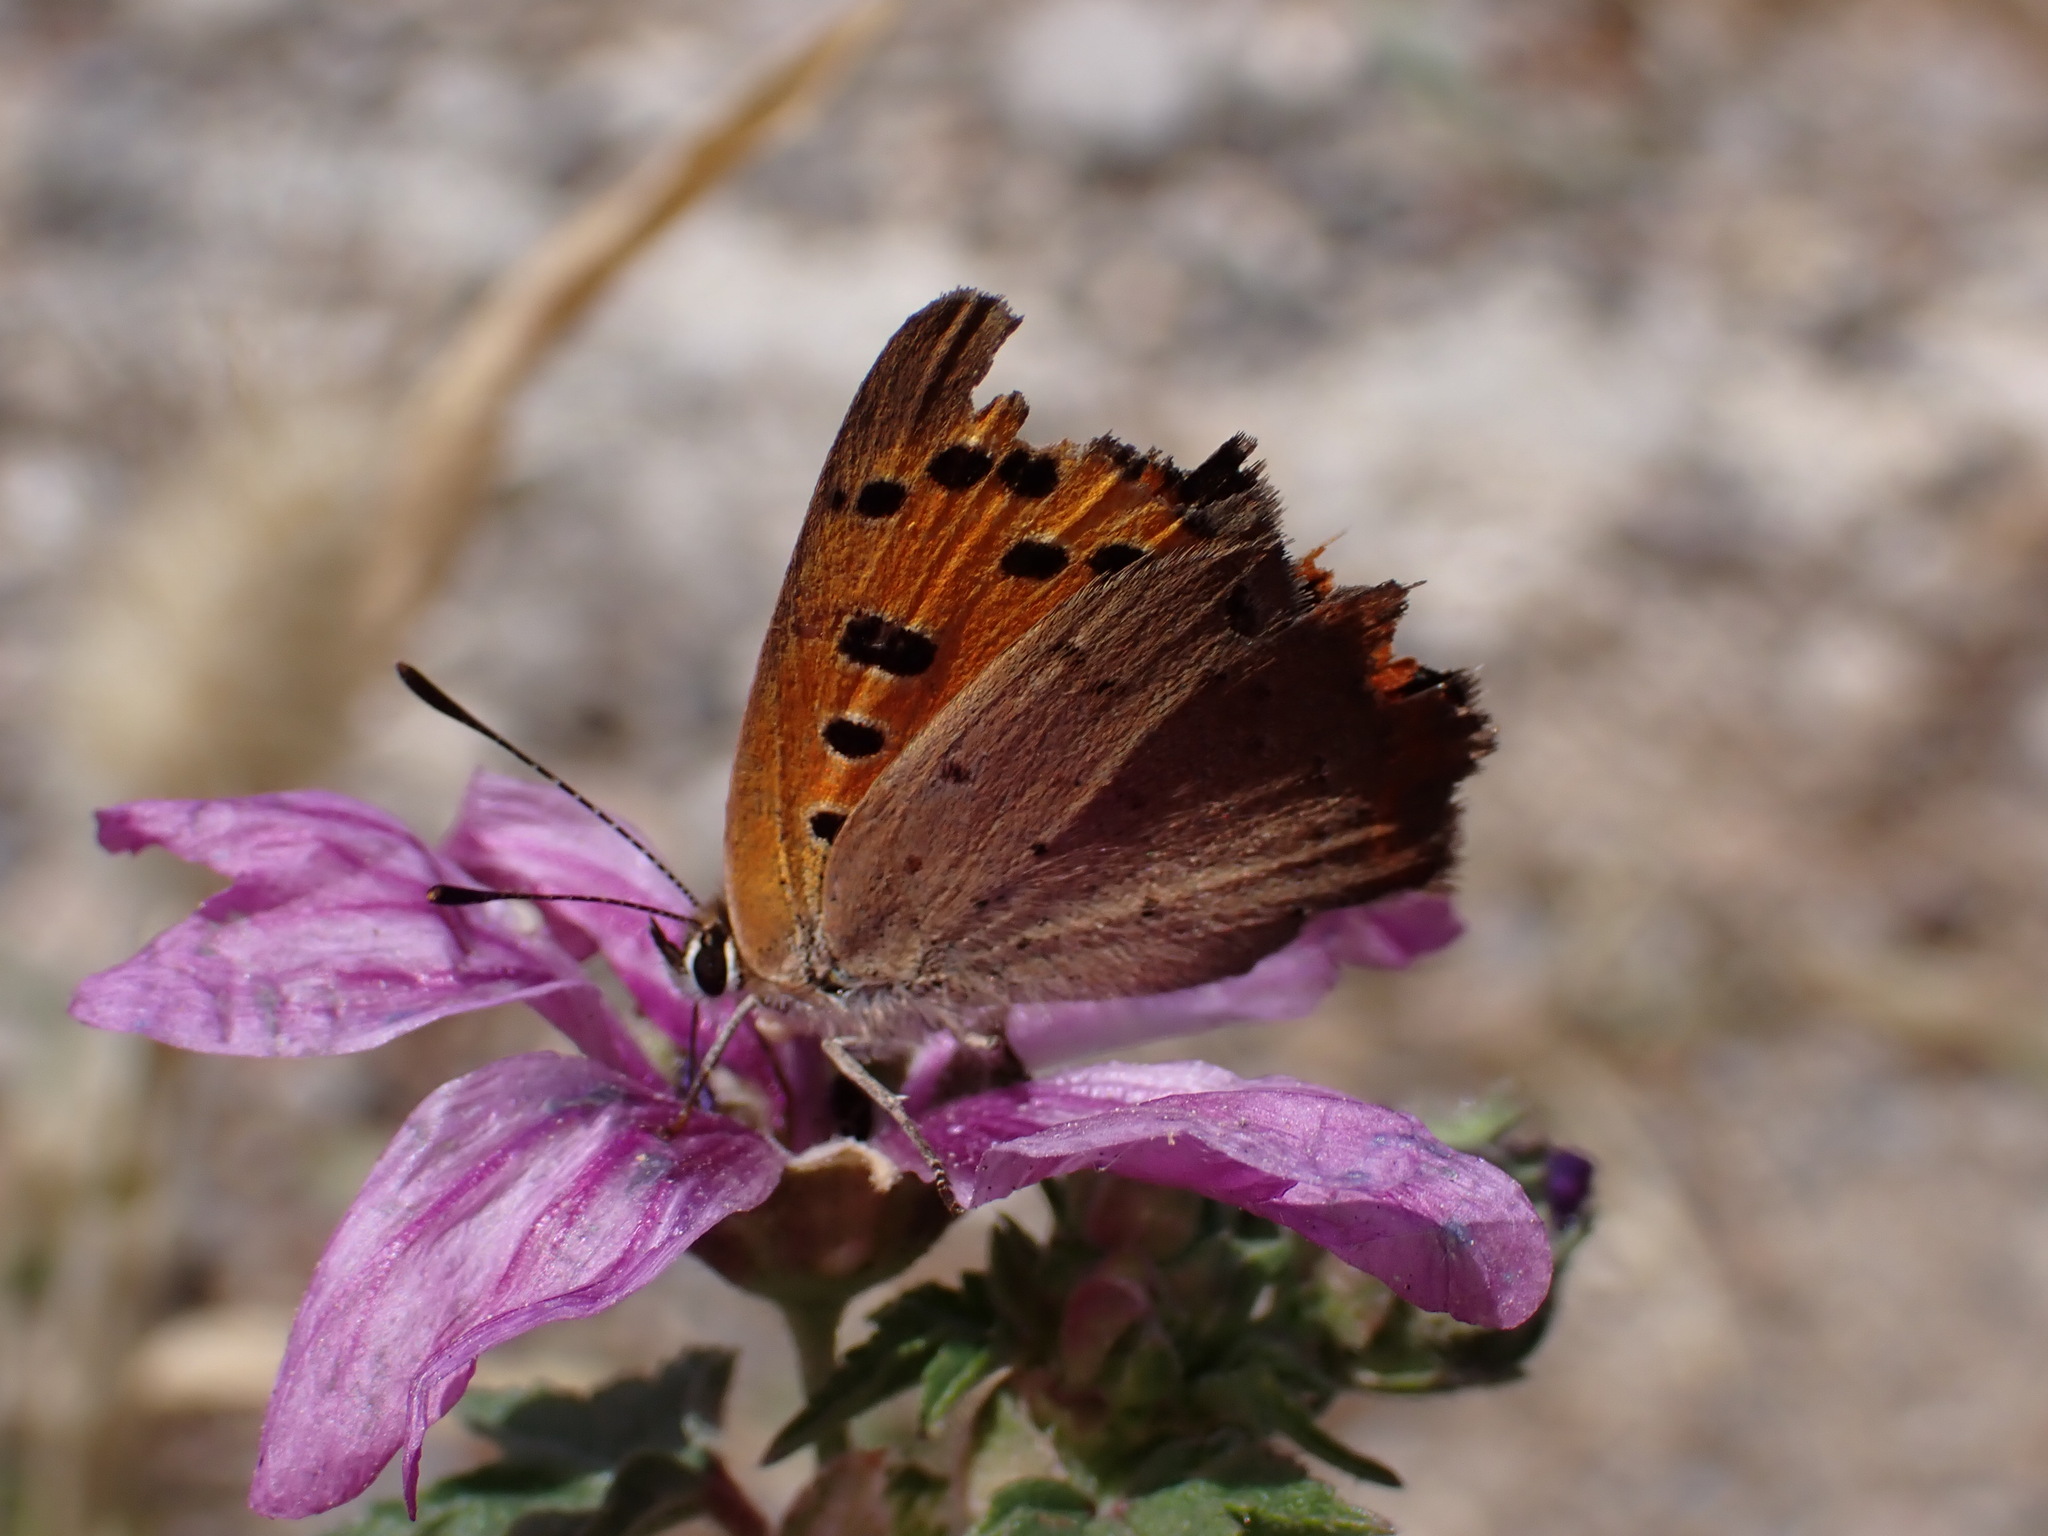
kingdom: Animalia
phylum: Arthropoda
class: Insecta
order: Lepidoptera
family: Lycaenidae
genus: Lycaena
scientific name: Lycaena phlaeas
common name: Small copper
